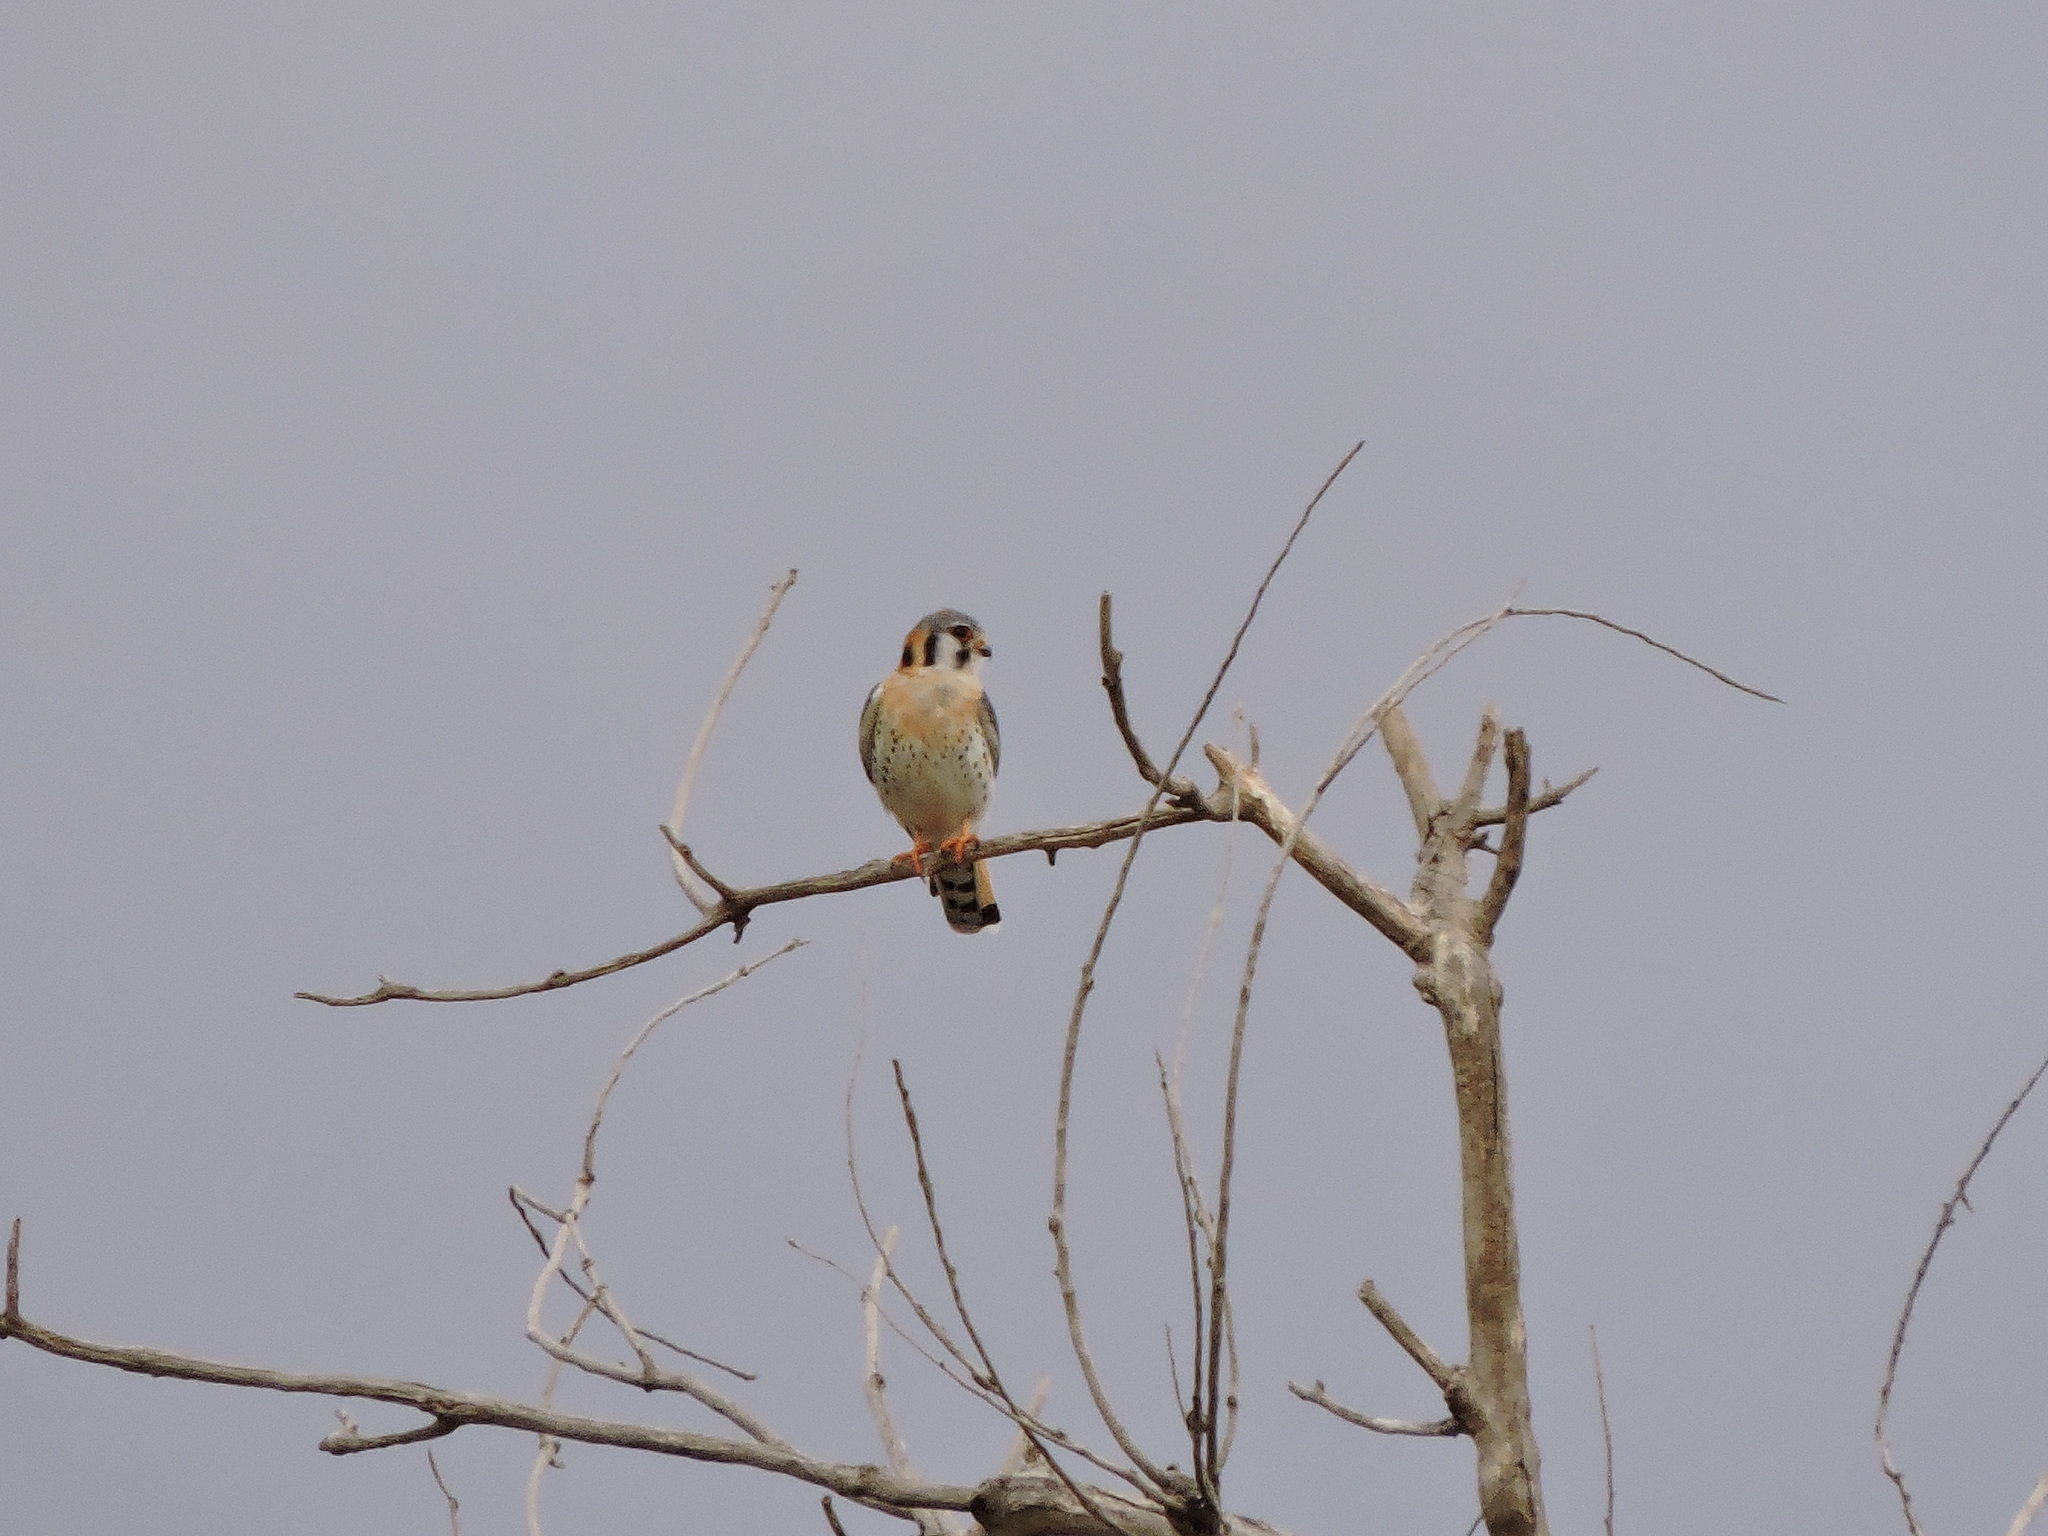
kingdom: Animalia
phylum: Chordata
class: Aves
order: Falconiformes
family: Falconidae
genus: Falco
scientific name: Falco sparverius
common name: American kestrel
